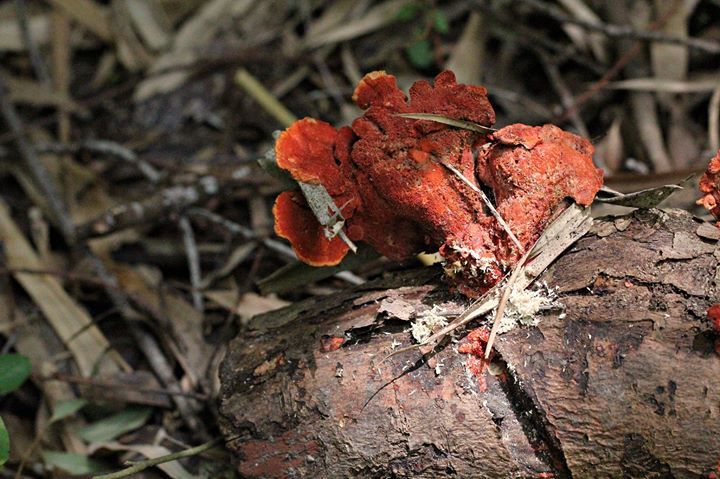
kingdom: Fungi
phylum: Basidiomycota
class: Agaricomycetes
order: Polyporales
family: Polyporaceae
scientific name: Polyporaceae
